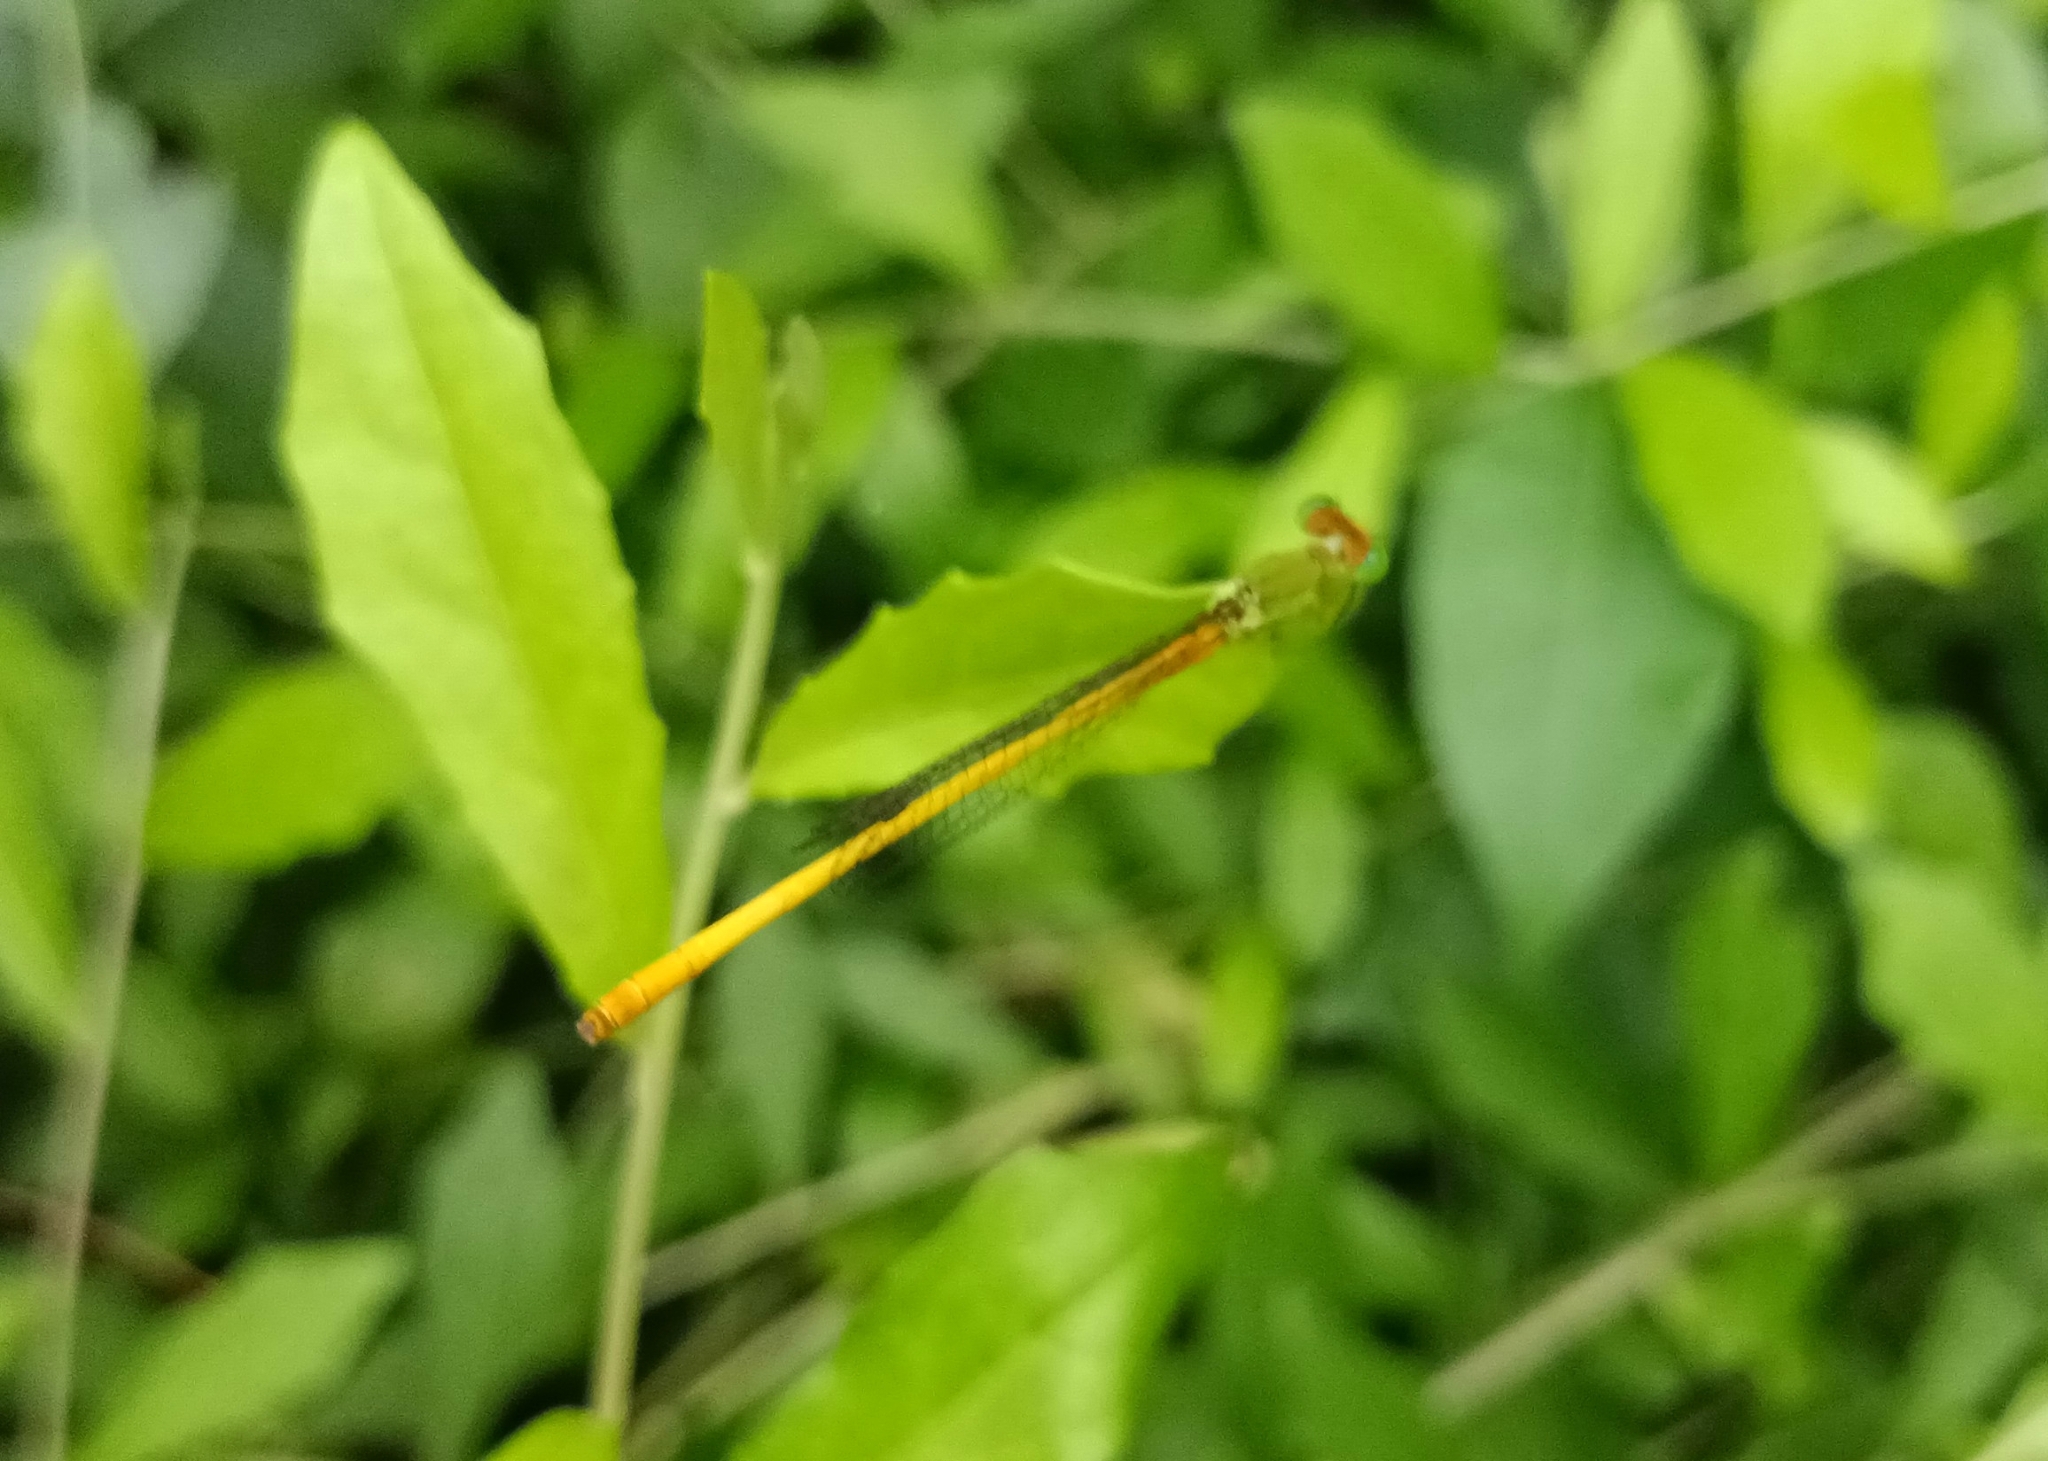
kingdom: Animalia
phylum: Arthropoda
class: Insecta
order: Odonata
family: Coenagrionidae
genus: Ceriagrion
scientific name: Ceriagrion coromandelianum
